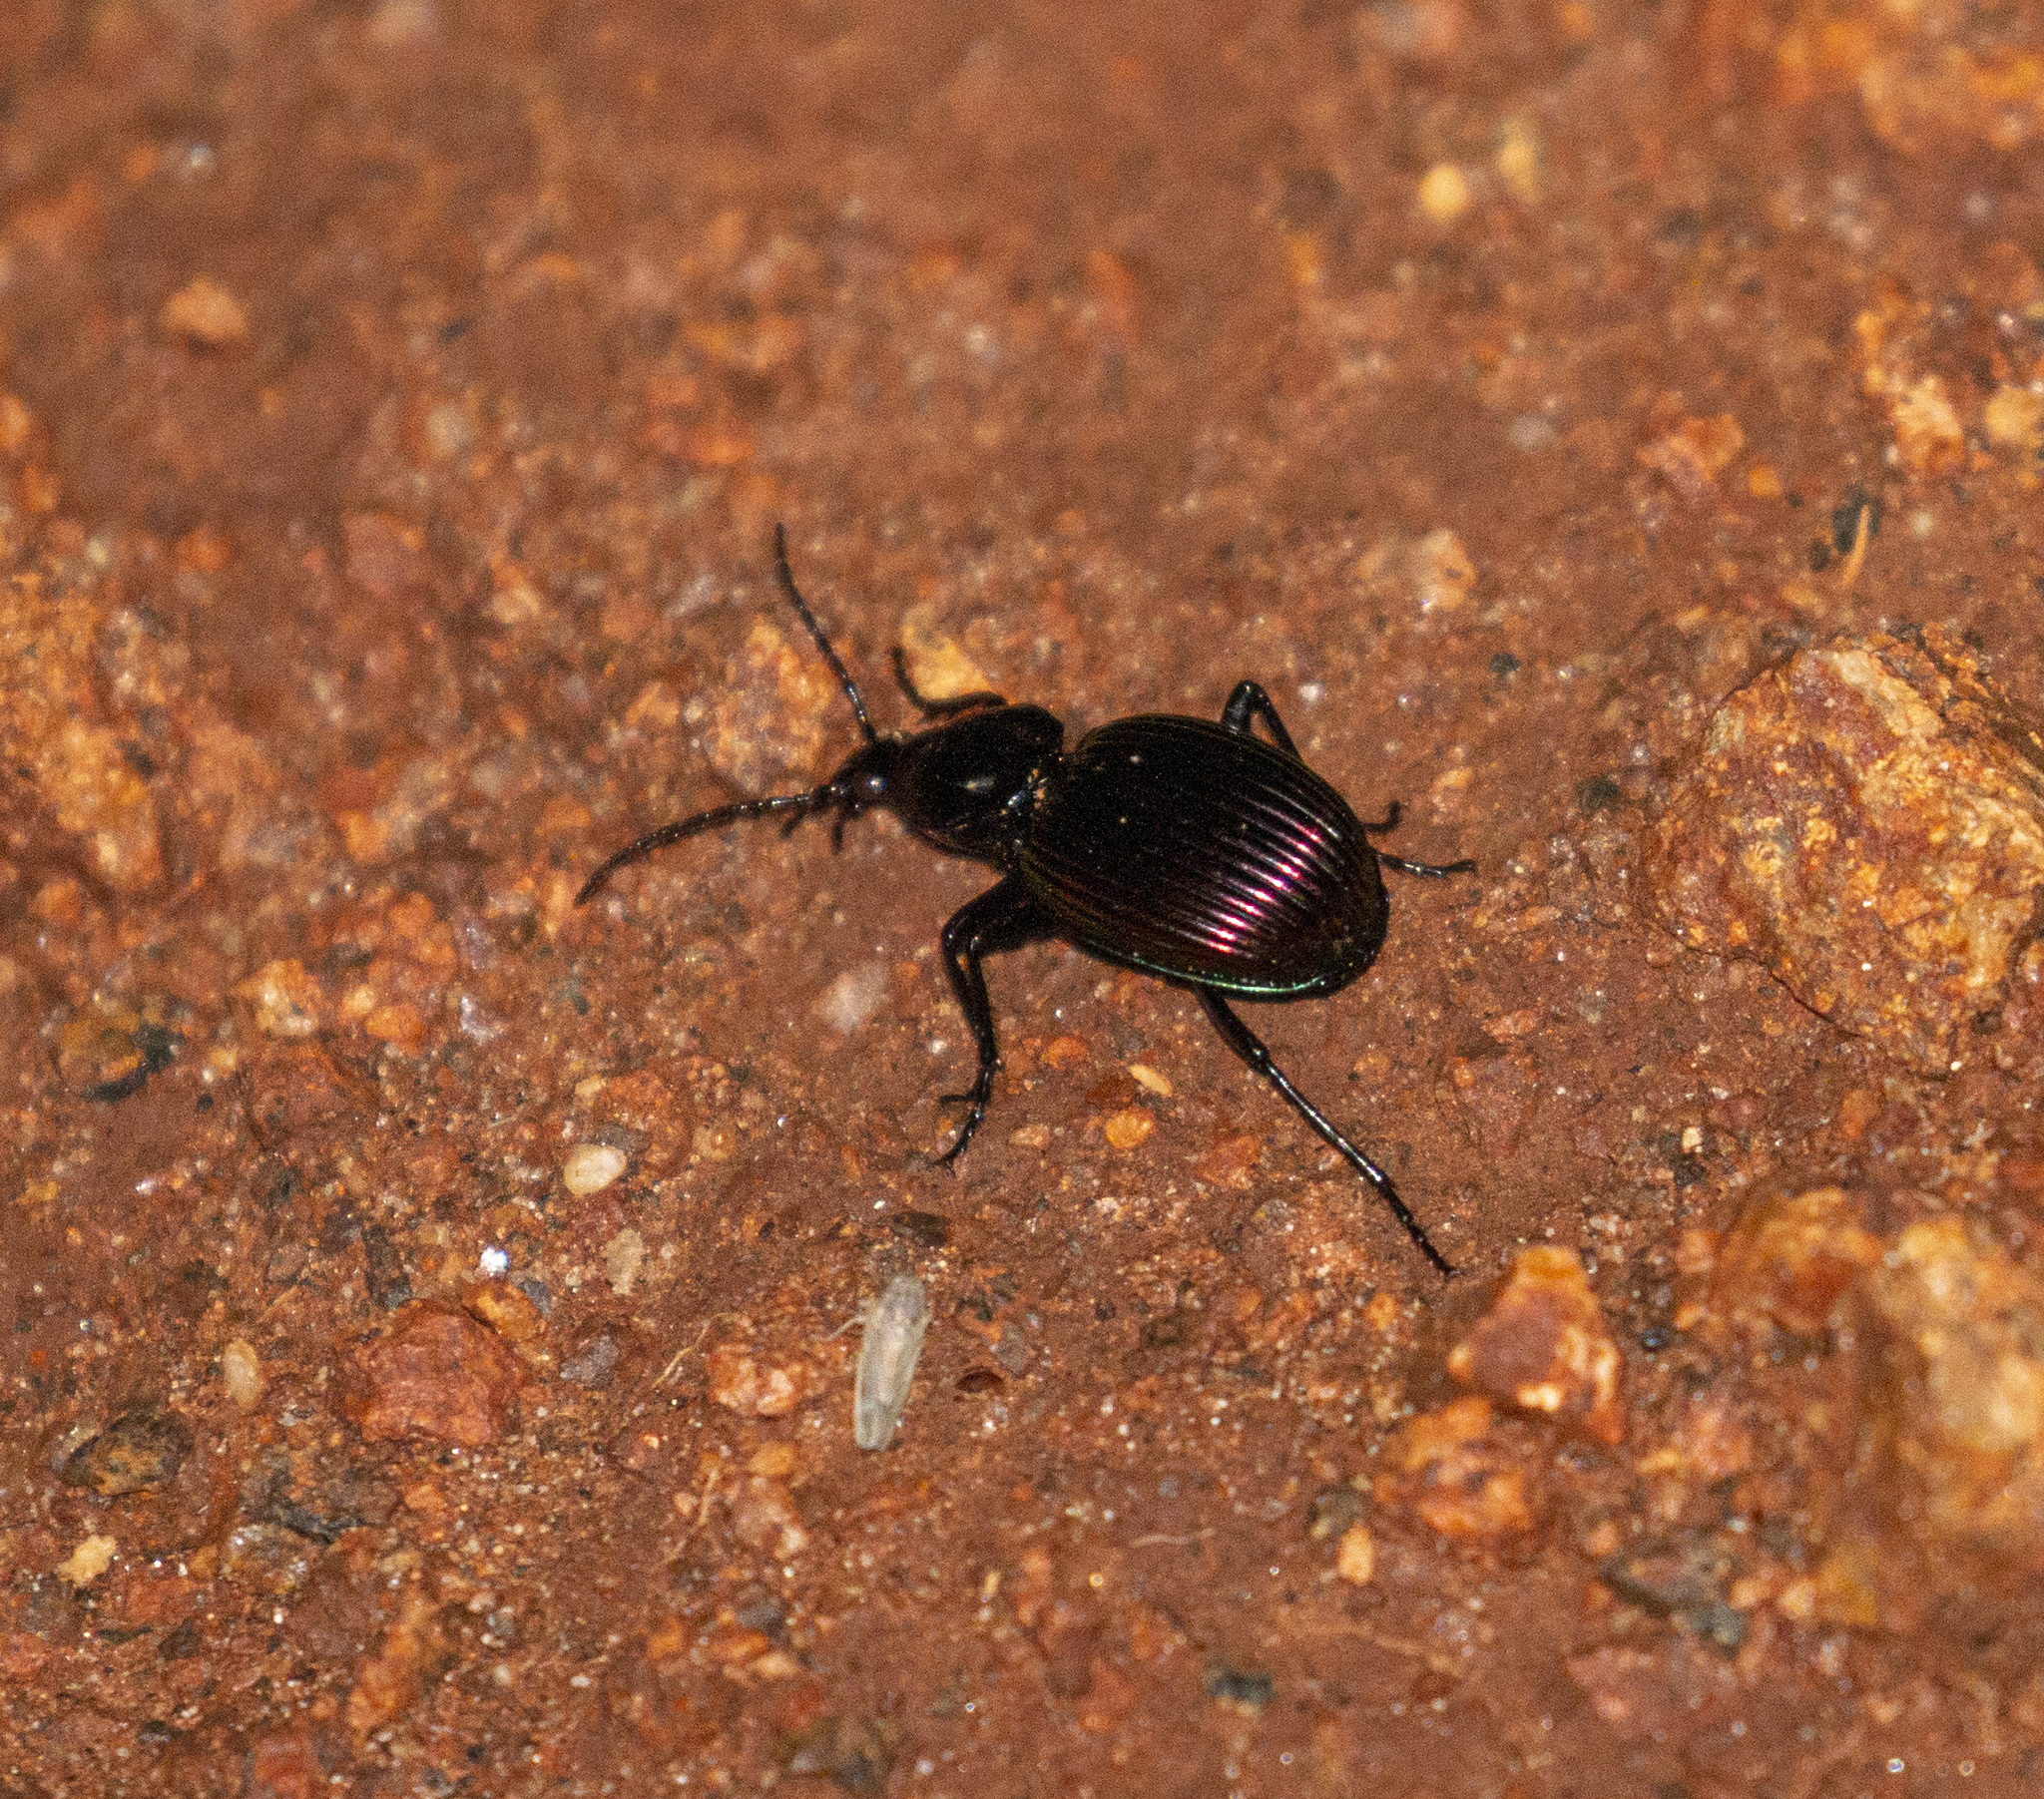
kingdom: Animalia
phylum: Arthropoda
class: Insecta
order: Coleoptera
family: Carabidae
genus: Brachygnathus
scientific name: Brachygnathus muticus
